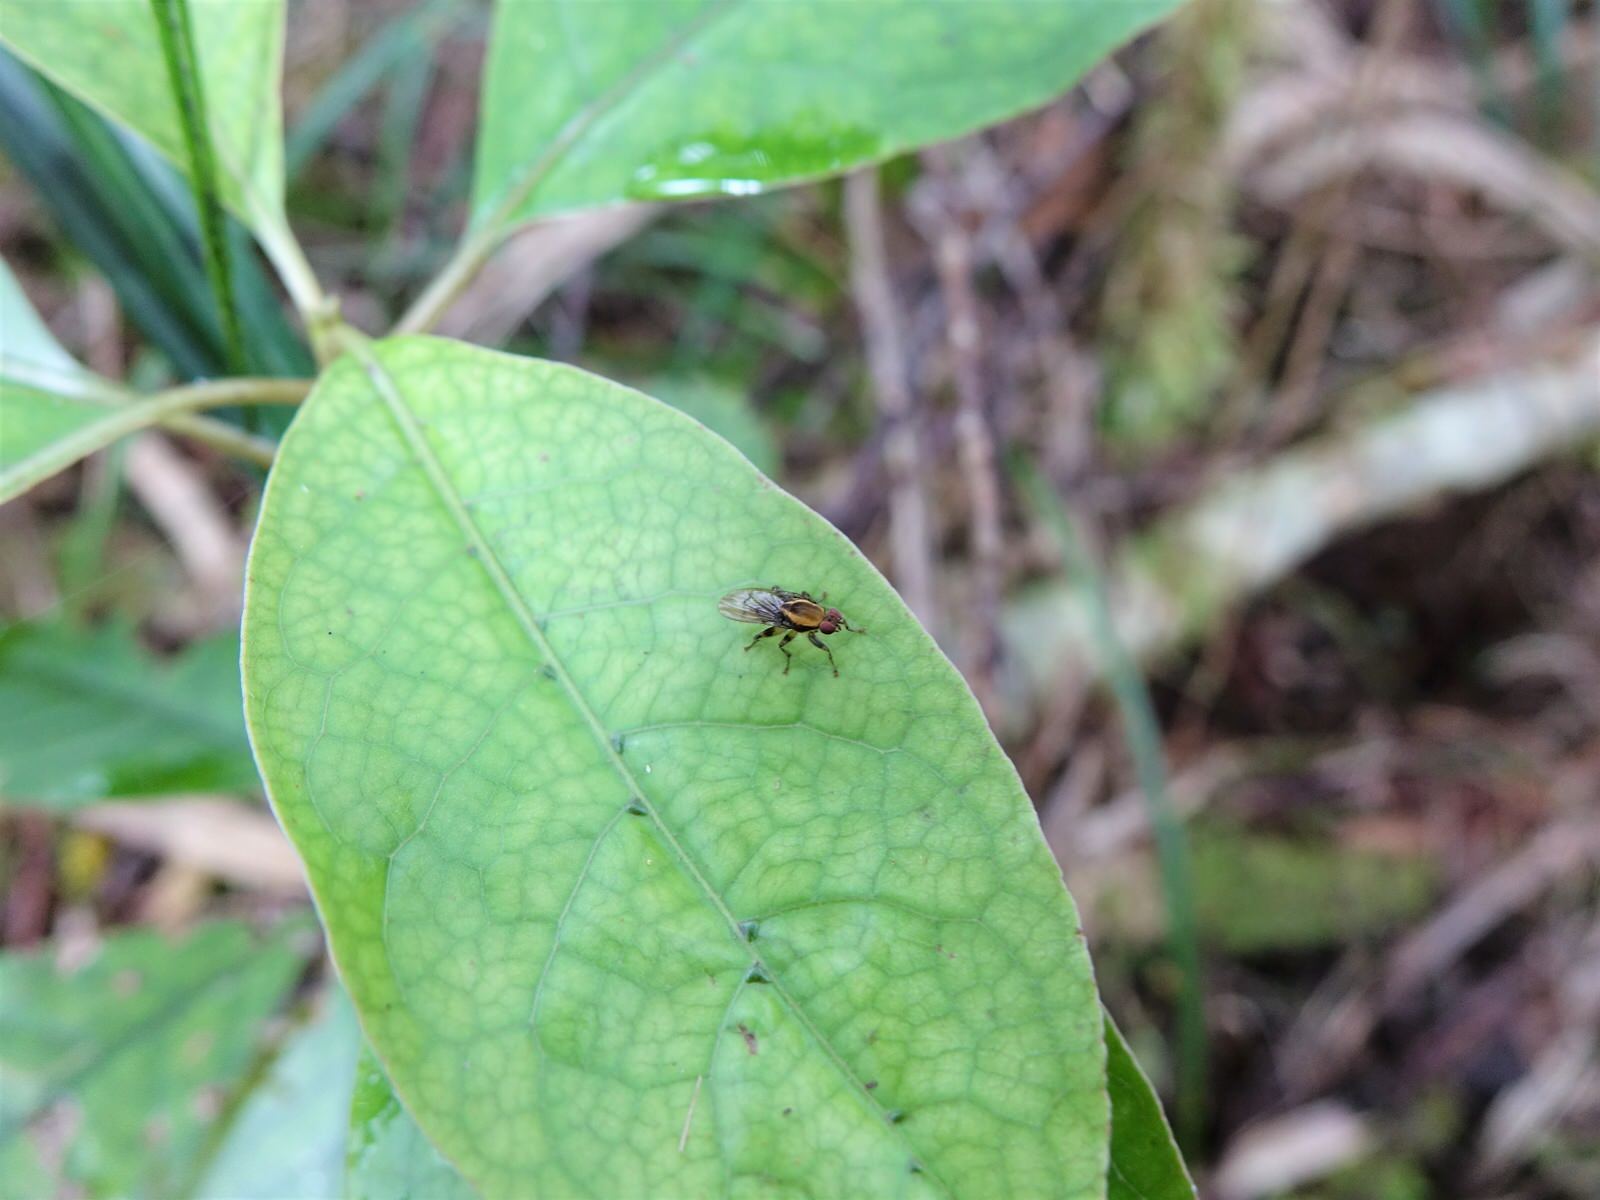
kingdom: Animalia
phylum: Arthropoda
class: Insecta
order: Diptera
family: Helosciomyzidae
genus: Scordalus
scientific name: Scordalus femoratus
